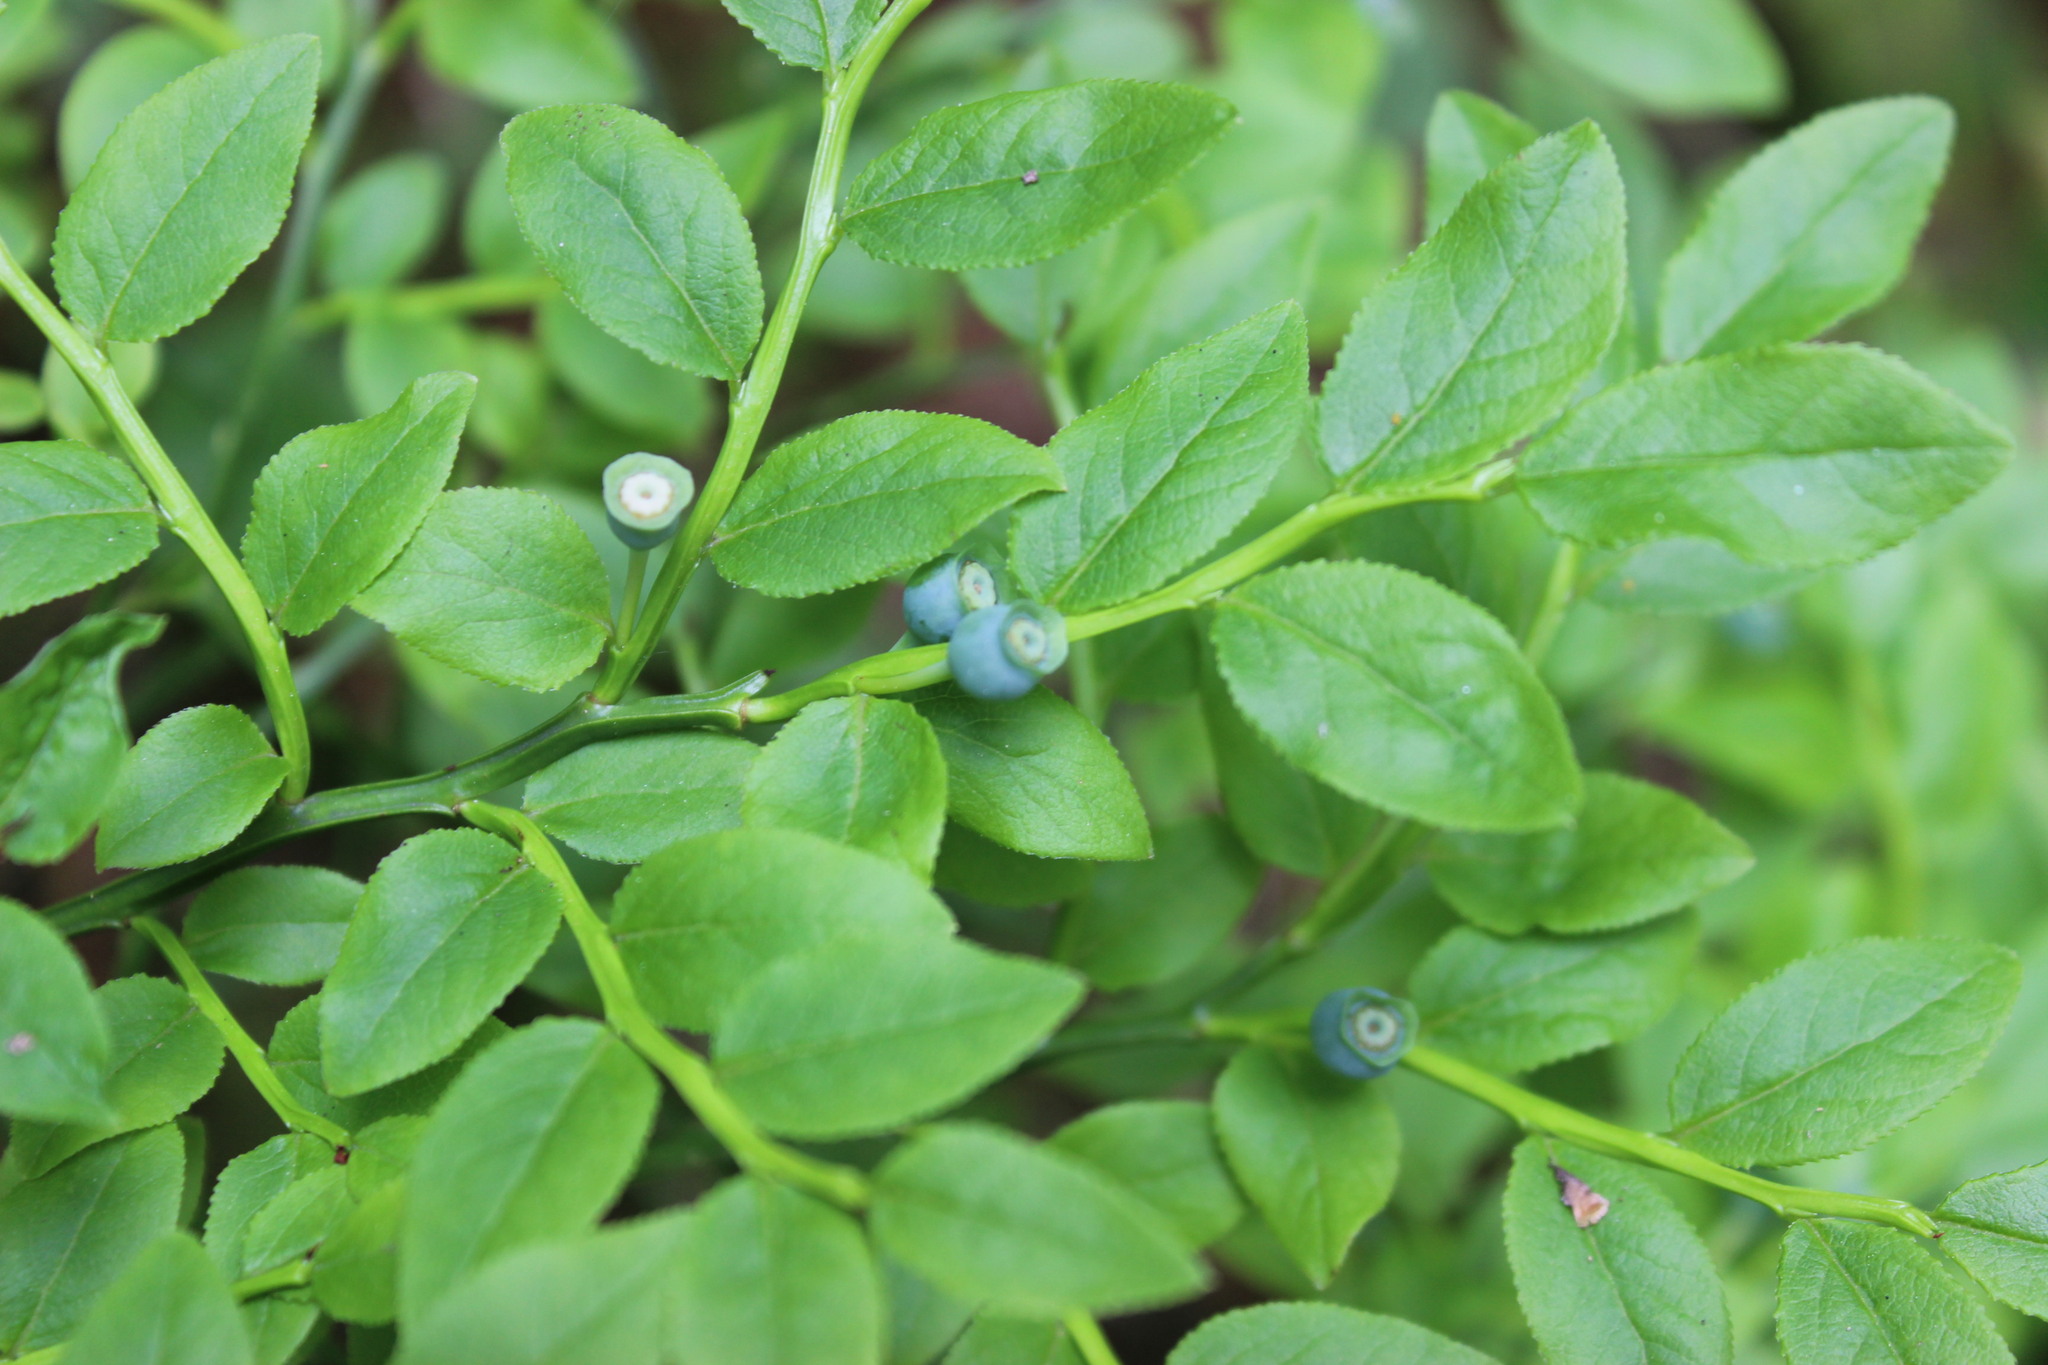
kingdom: Plantae
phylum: Tracheophyta
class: Magnoliopsida
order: Ericales
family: Ericaceae
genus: Vaccinium
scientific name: Vaccinium myrtillus
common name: Bilberry
